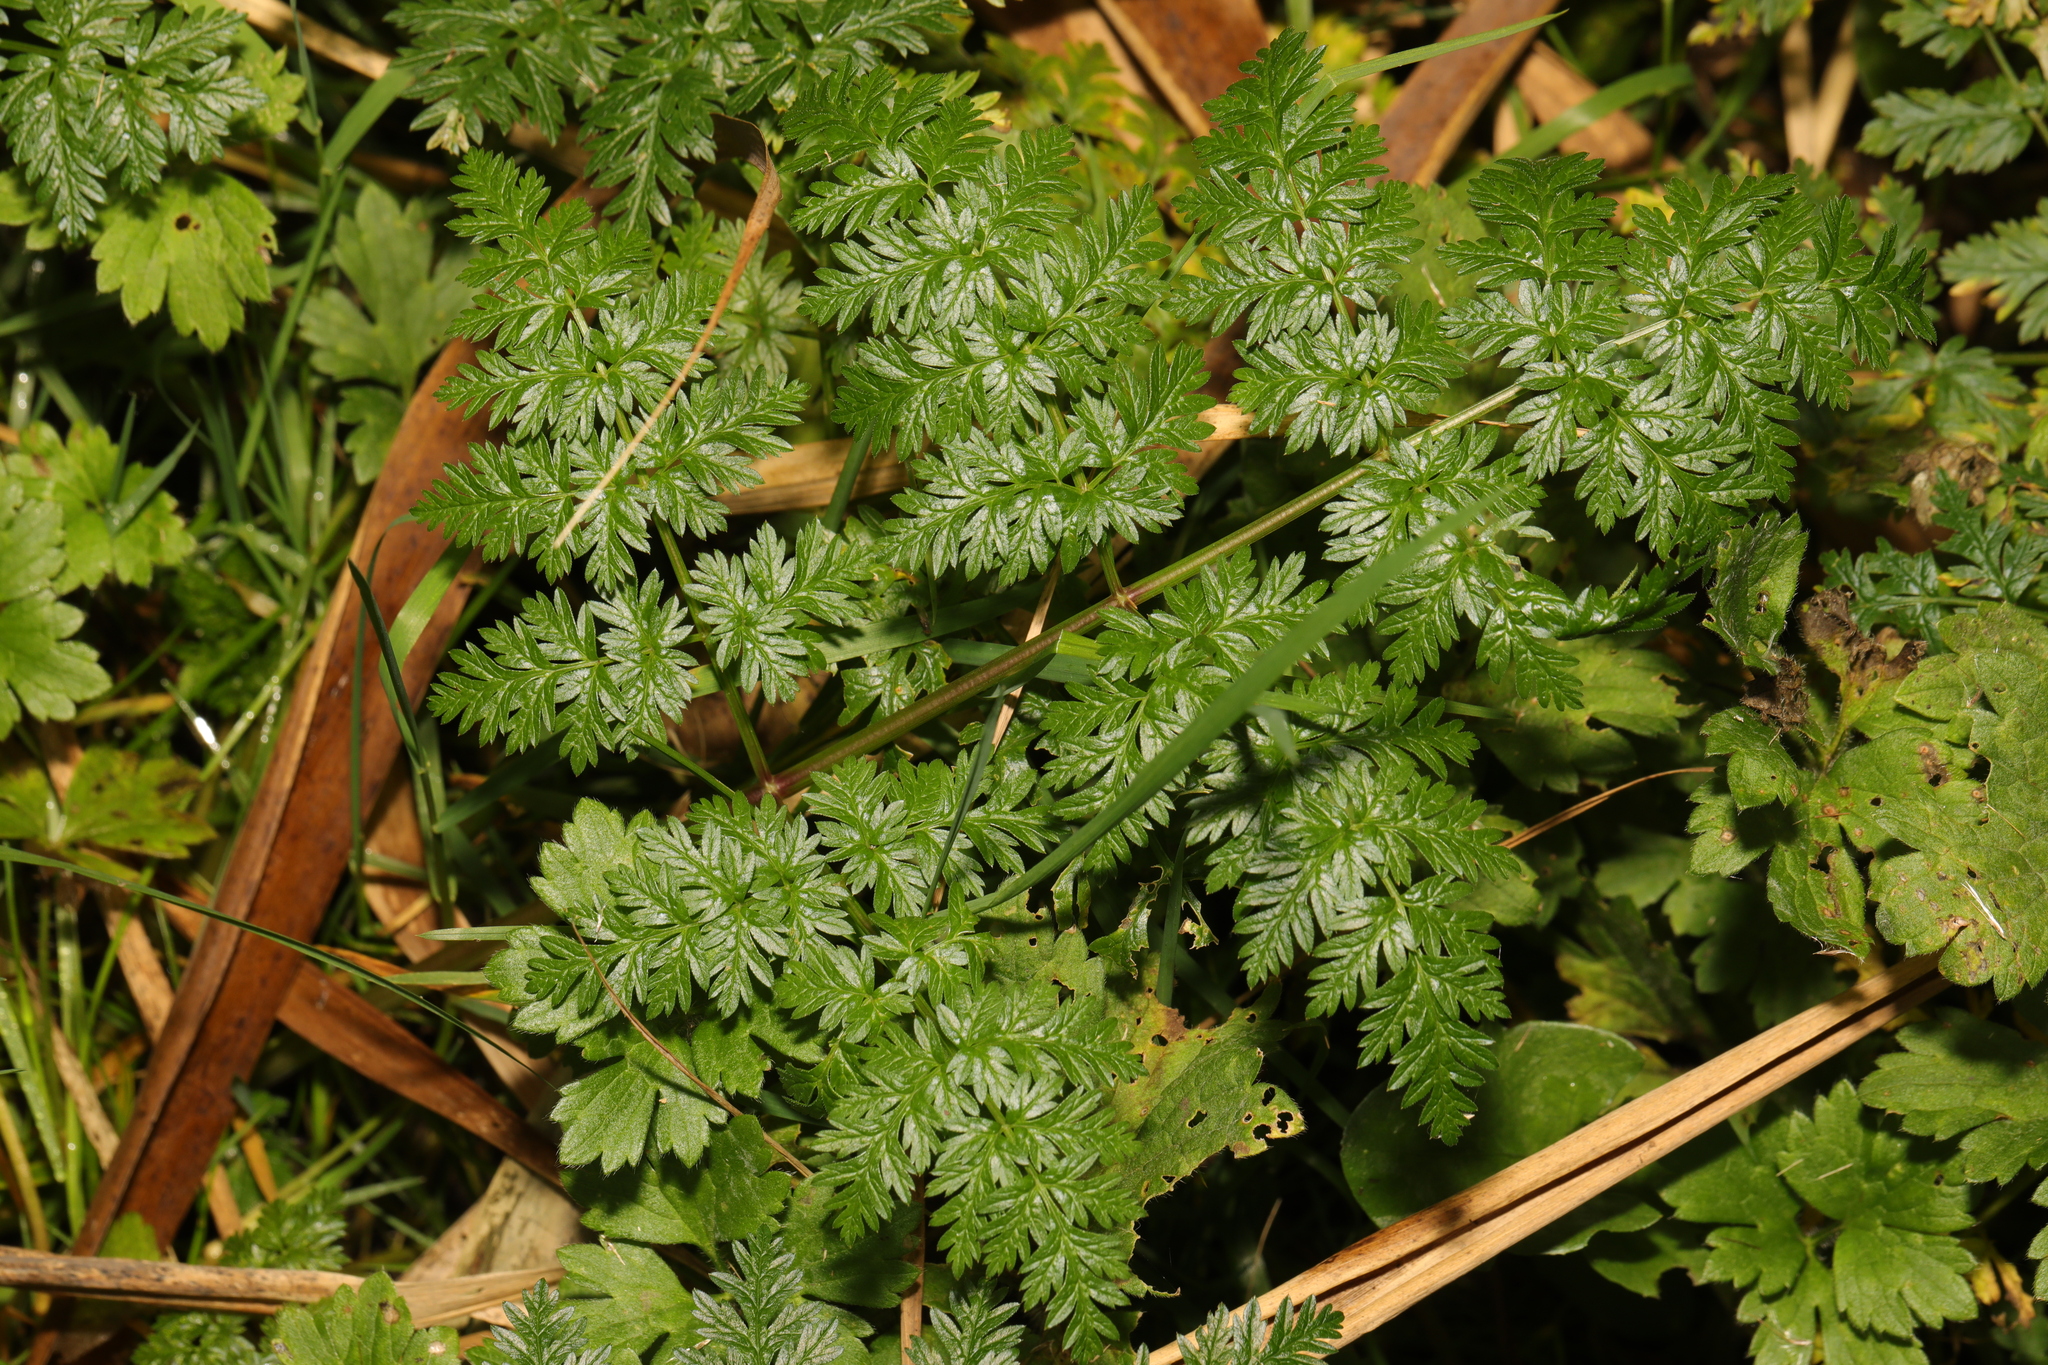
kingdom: Plantae
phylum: Tracheophyta
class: Magnoliopsida
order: Apiales
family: Apiaceae
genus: Anthriscus
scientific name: Anthriscus sylvestris
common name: Cow parsley
